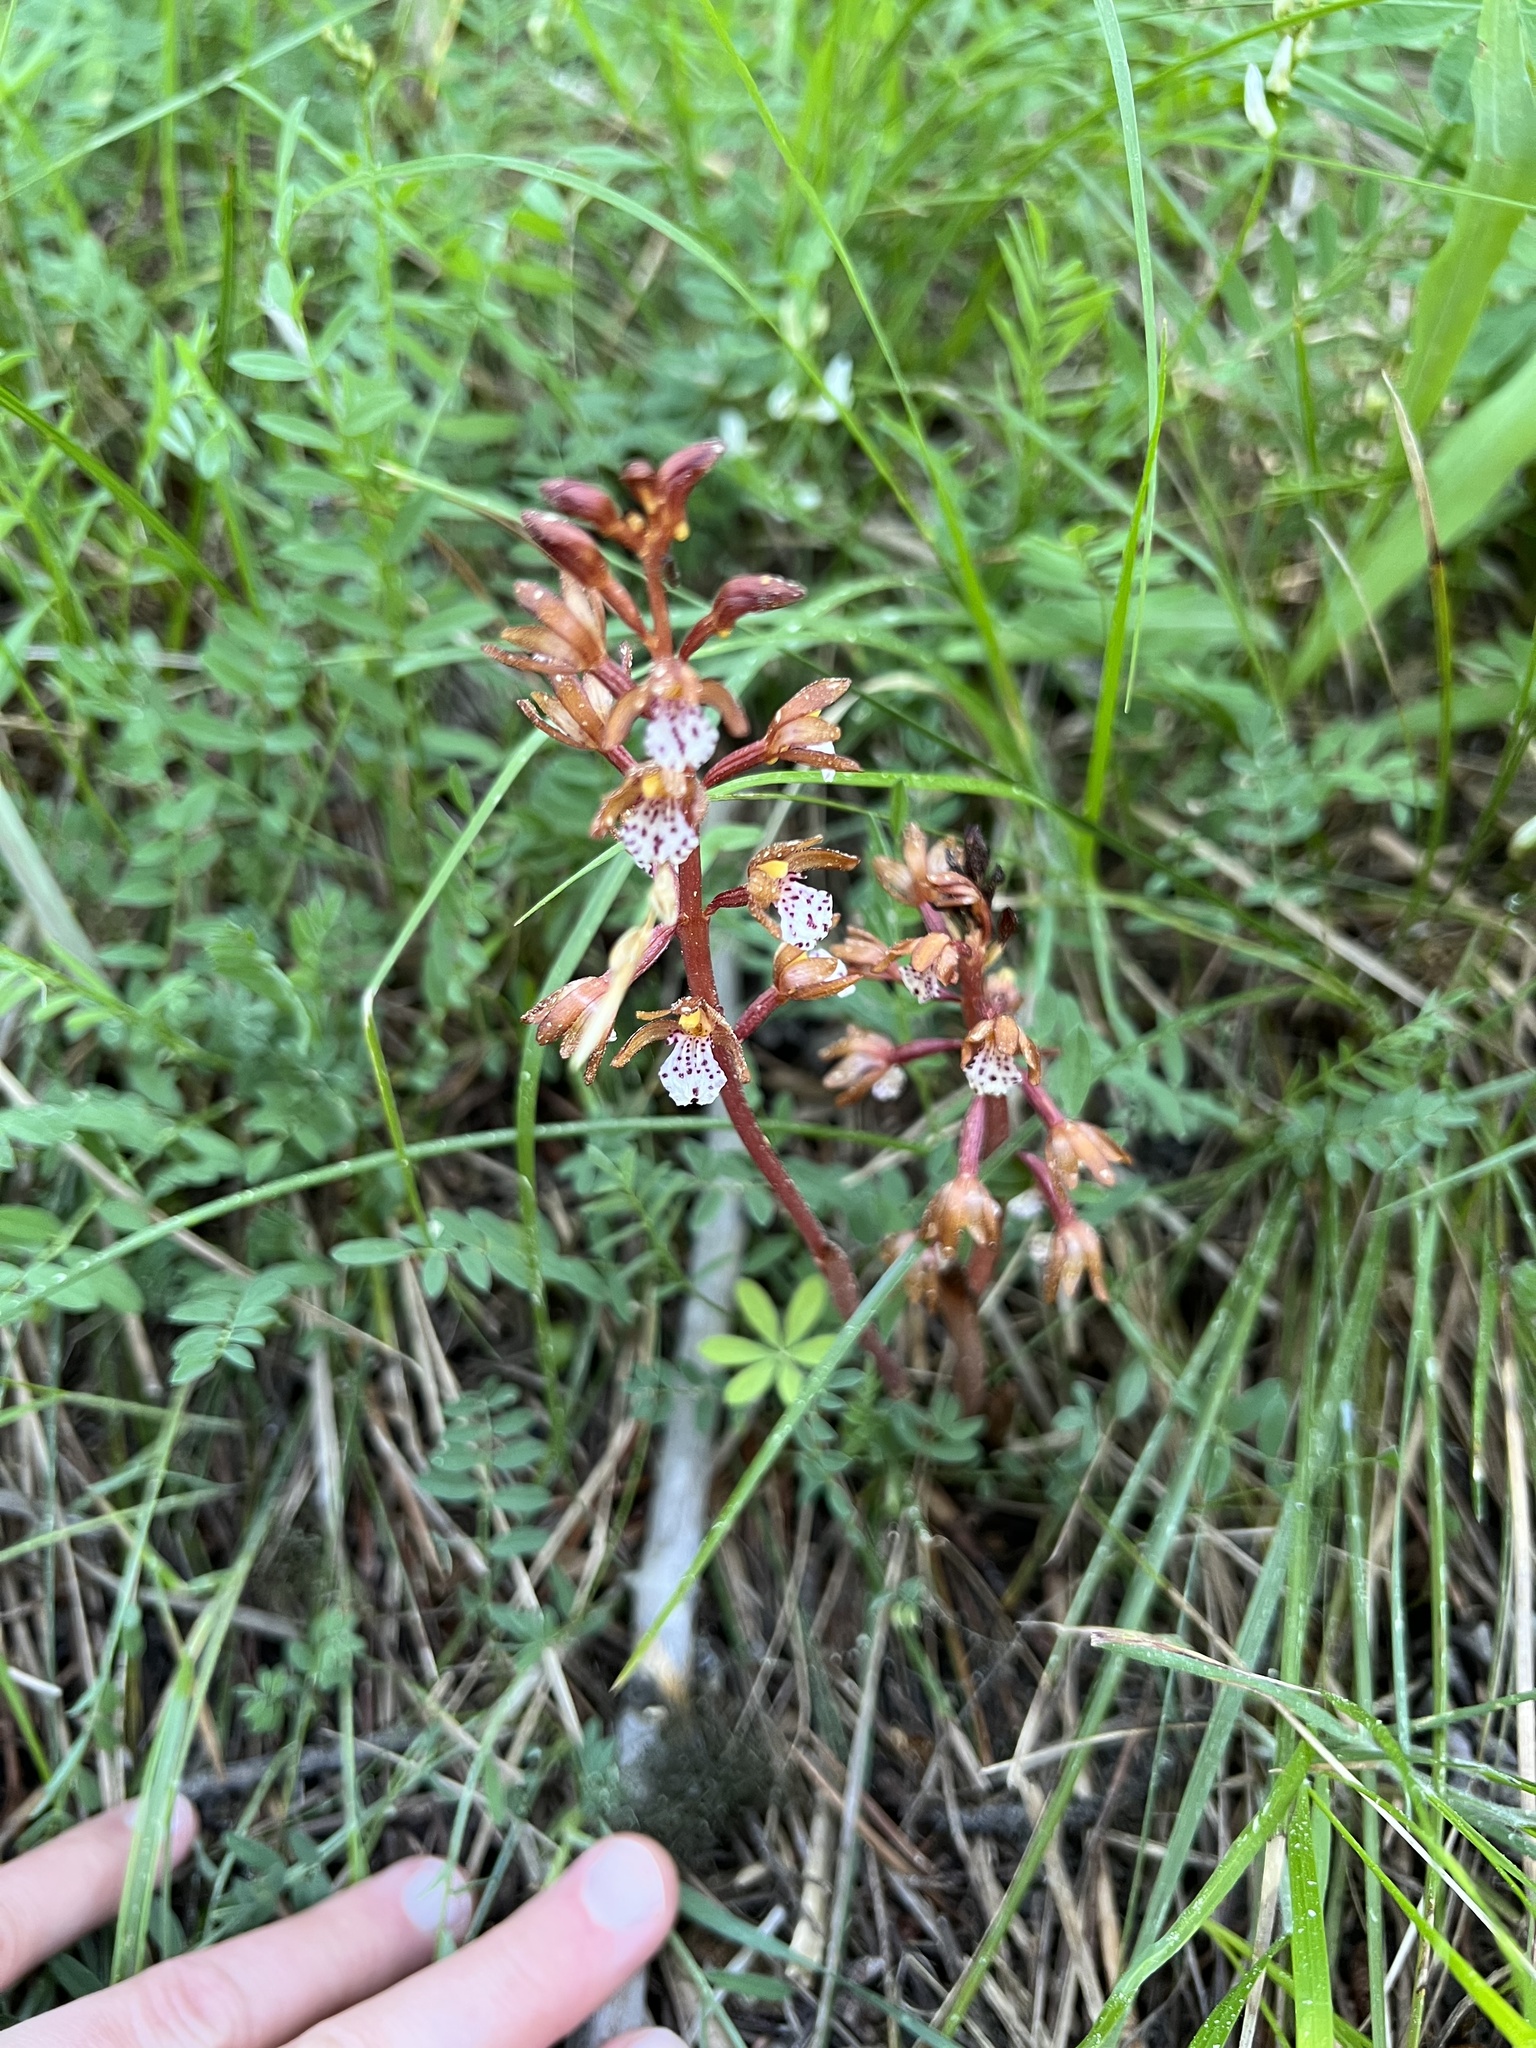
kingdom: Plantae
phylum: Tracheophyta
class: Liliopsida
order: Asparagales
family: Orchidaceae
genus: Corallorhiza
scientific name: Corallorhiza maculata
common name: Spotted coralroot
